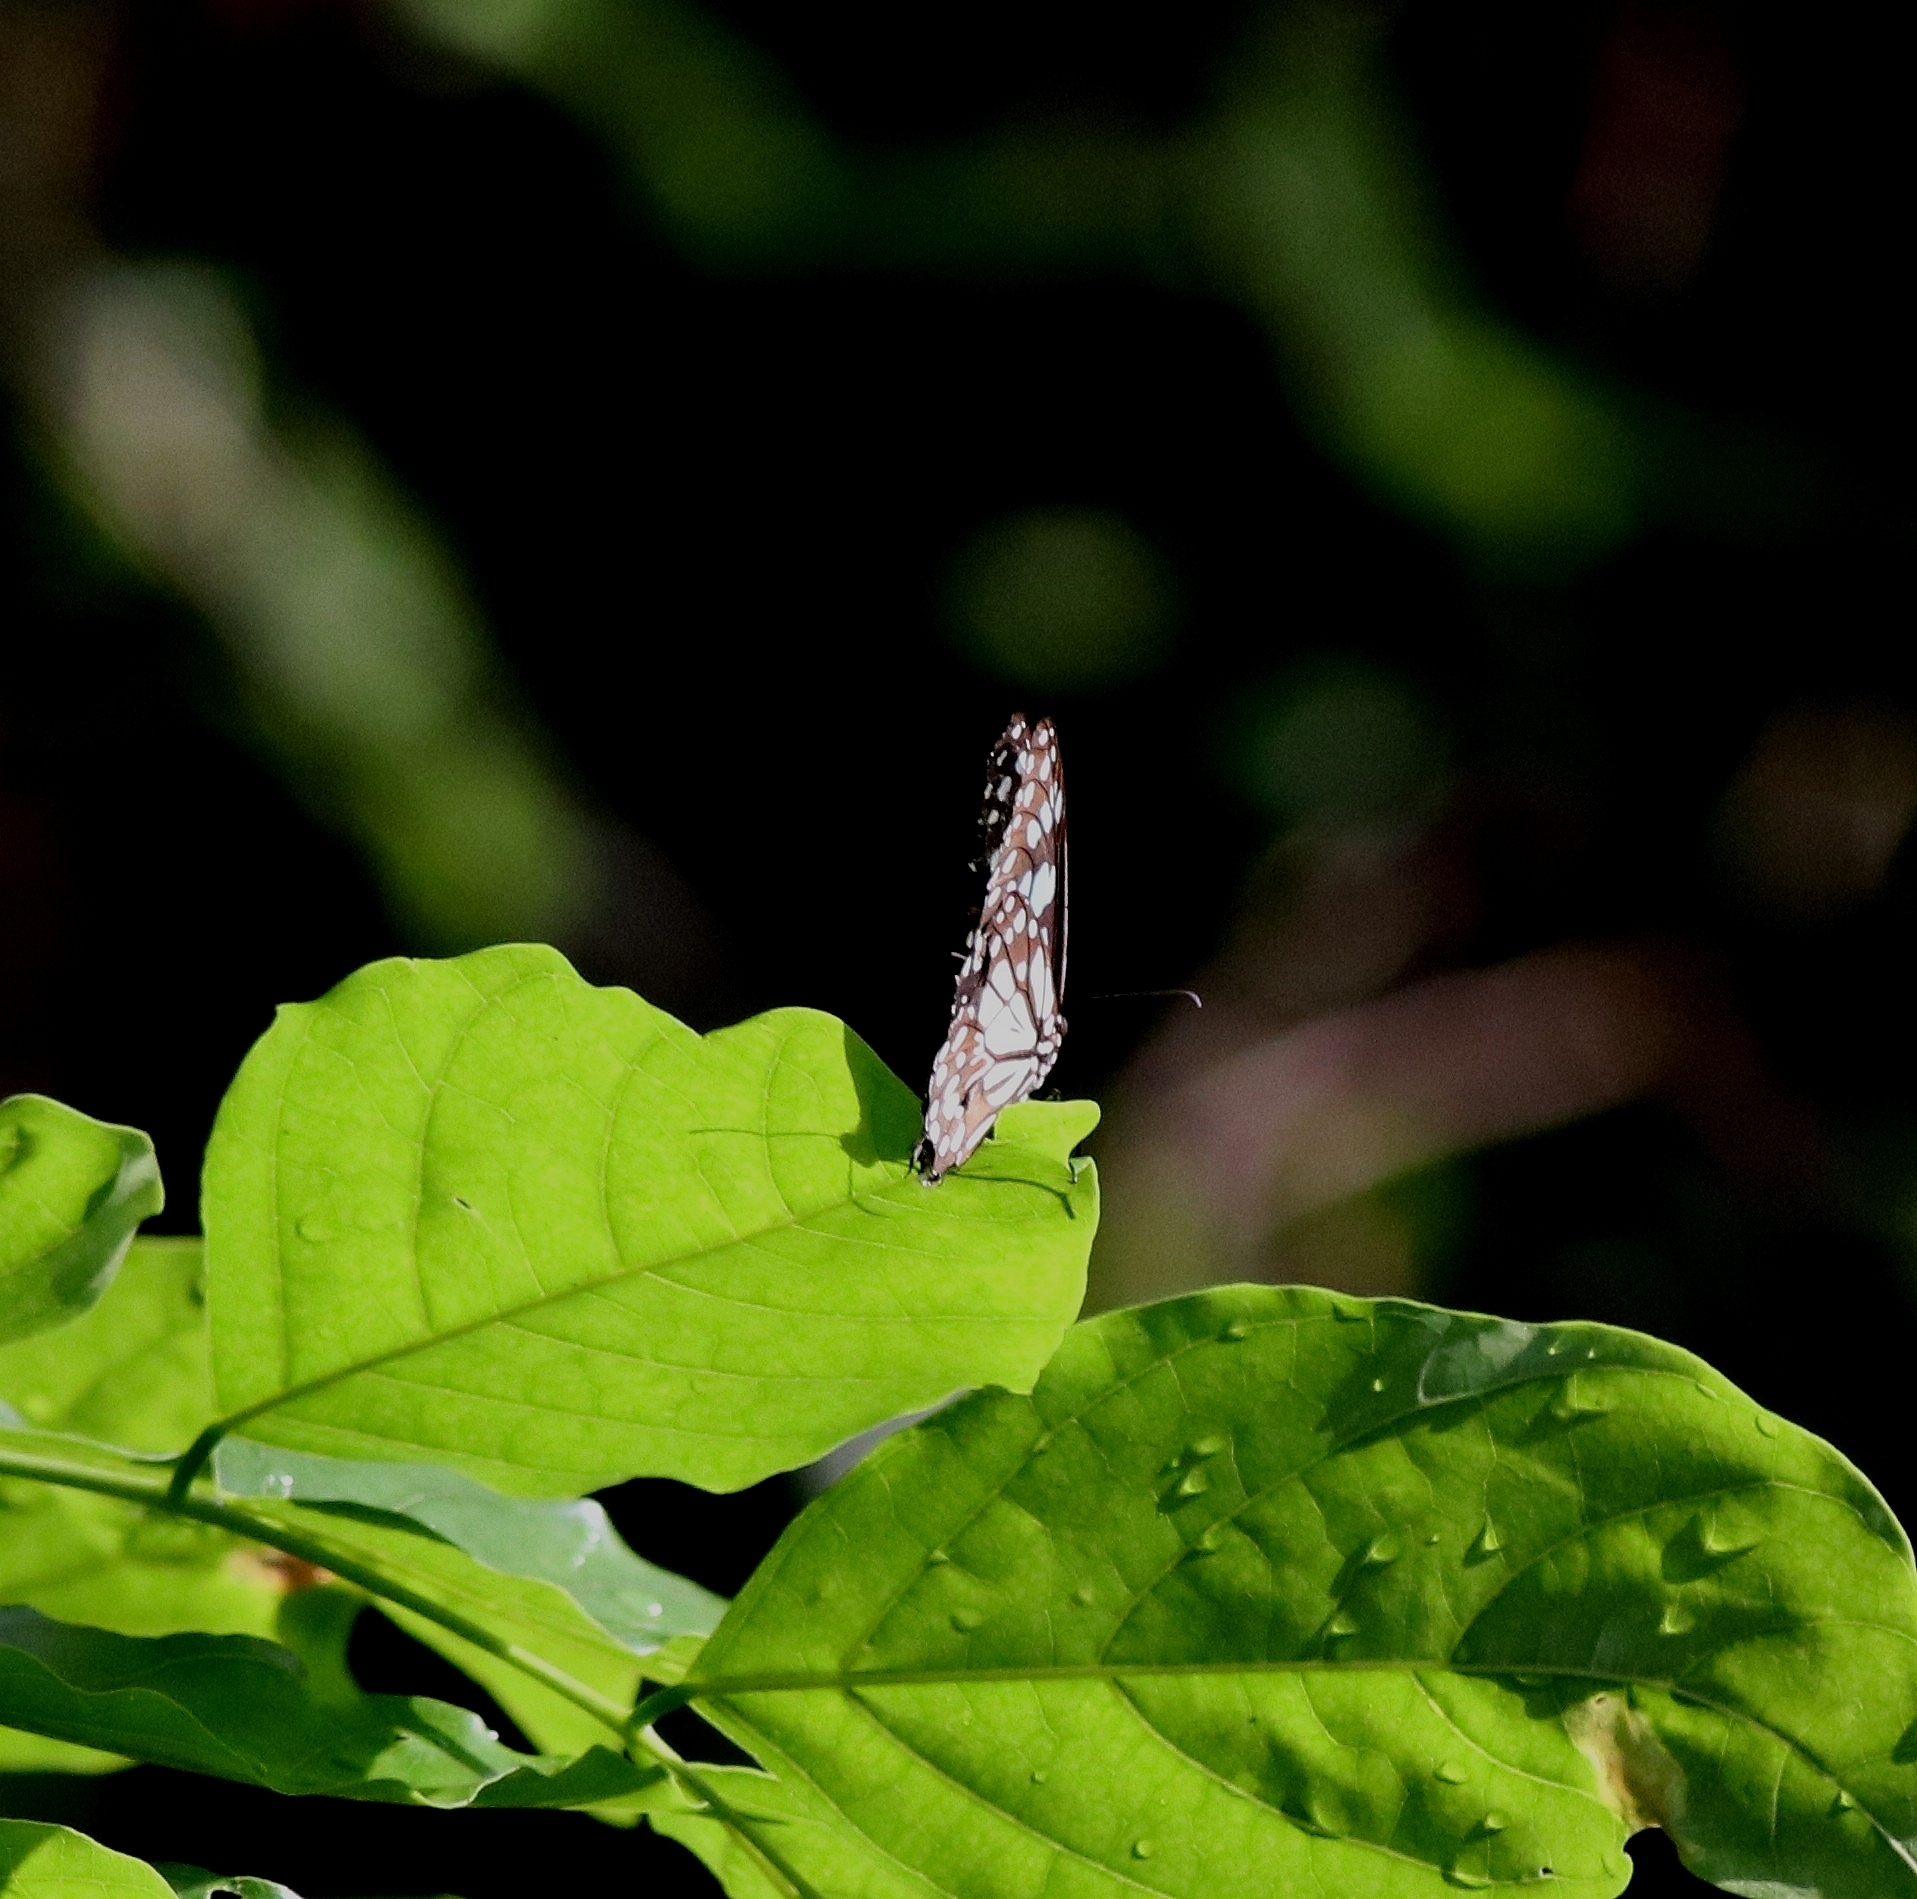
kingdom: Animalia
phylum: Arthropoda
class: Insecta
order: Lepidoptera
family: Nymphalidae
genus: Tirumala
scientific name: Tirumala limniace
